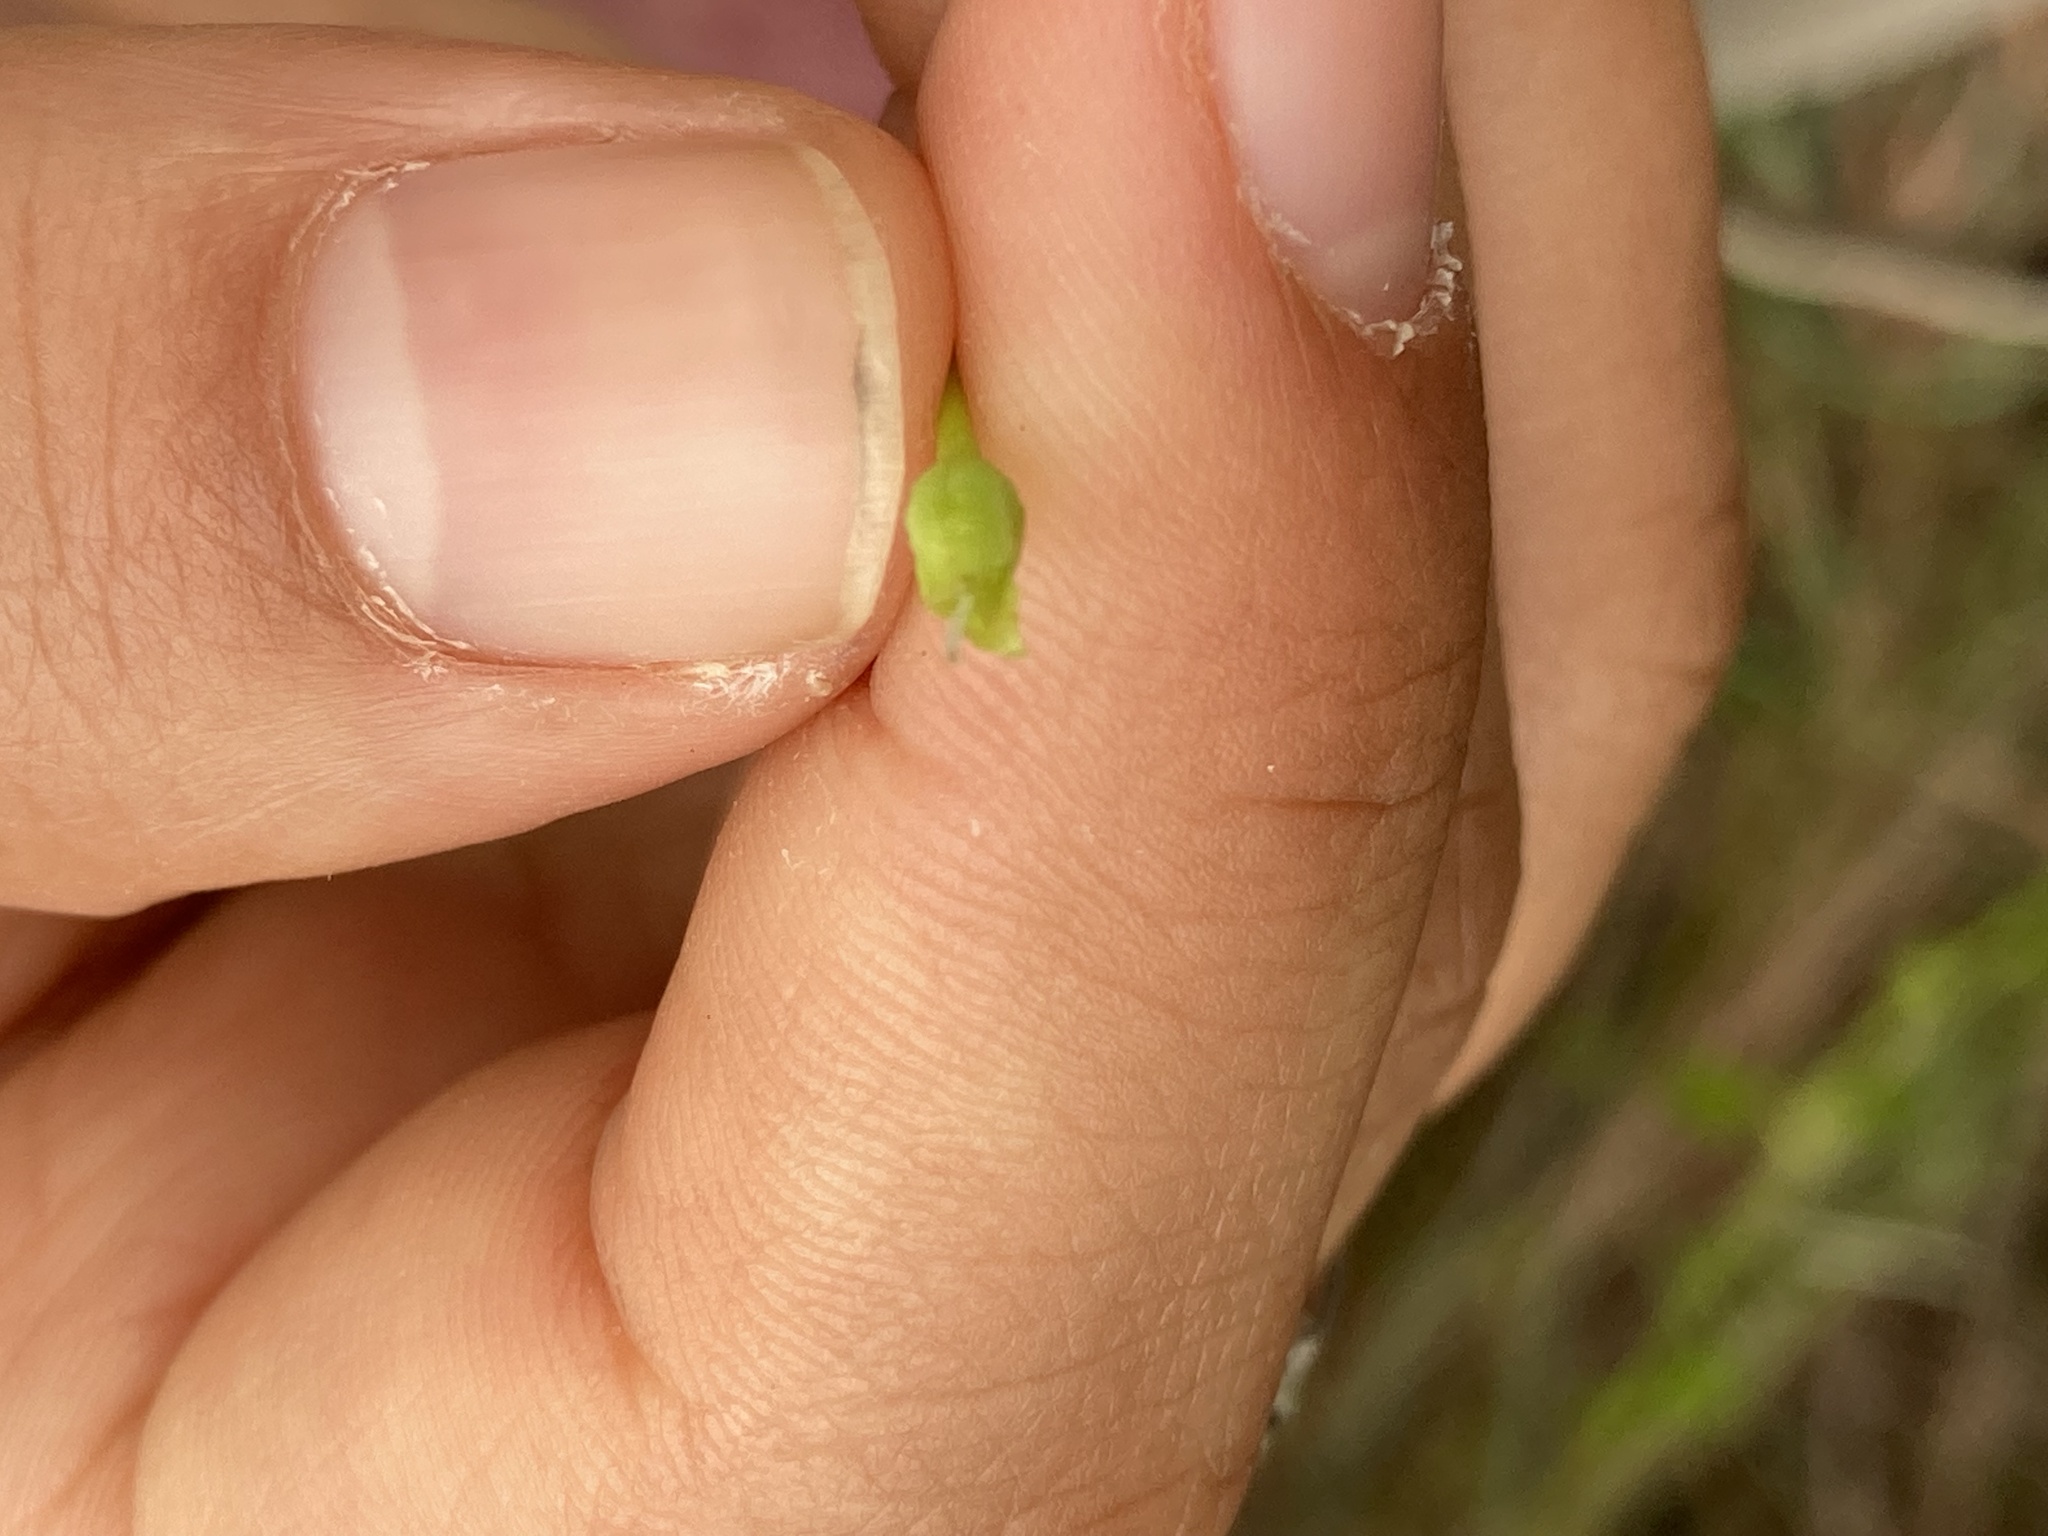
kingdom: Plantae
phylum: Tracheophyta
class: Magnoliopsida
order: Solanales
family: Convolvulaceae
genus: Jacquemontia
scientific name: Jacquemontia curtissii
